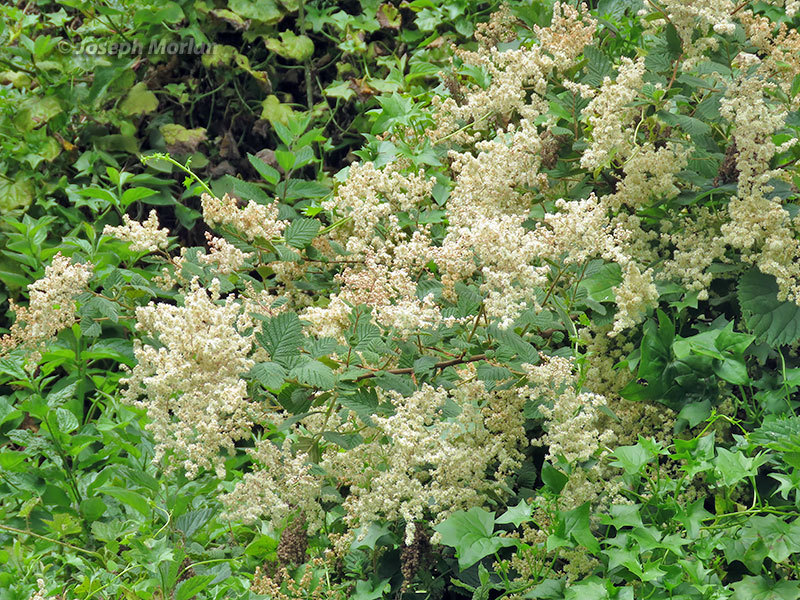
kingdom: Plantae
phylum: Tracheophyta
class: Magnoliopsida
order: Rosales
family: Rosaceae
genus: Holodiscus
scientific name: Holodiscus discolor
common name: Oceanspray
